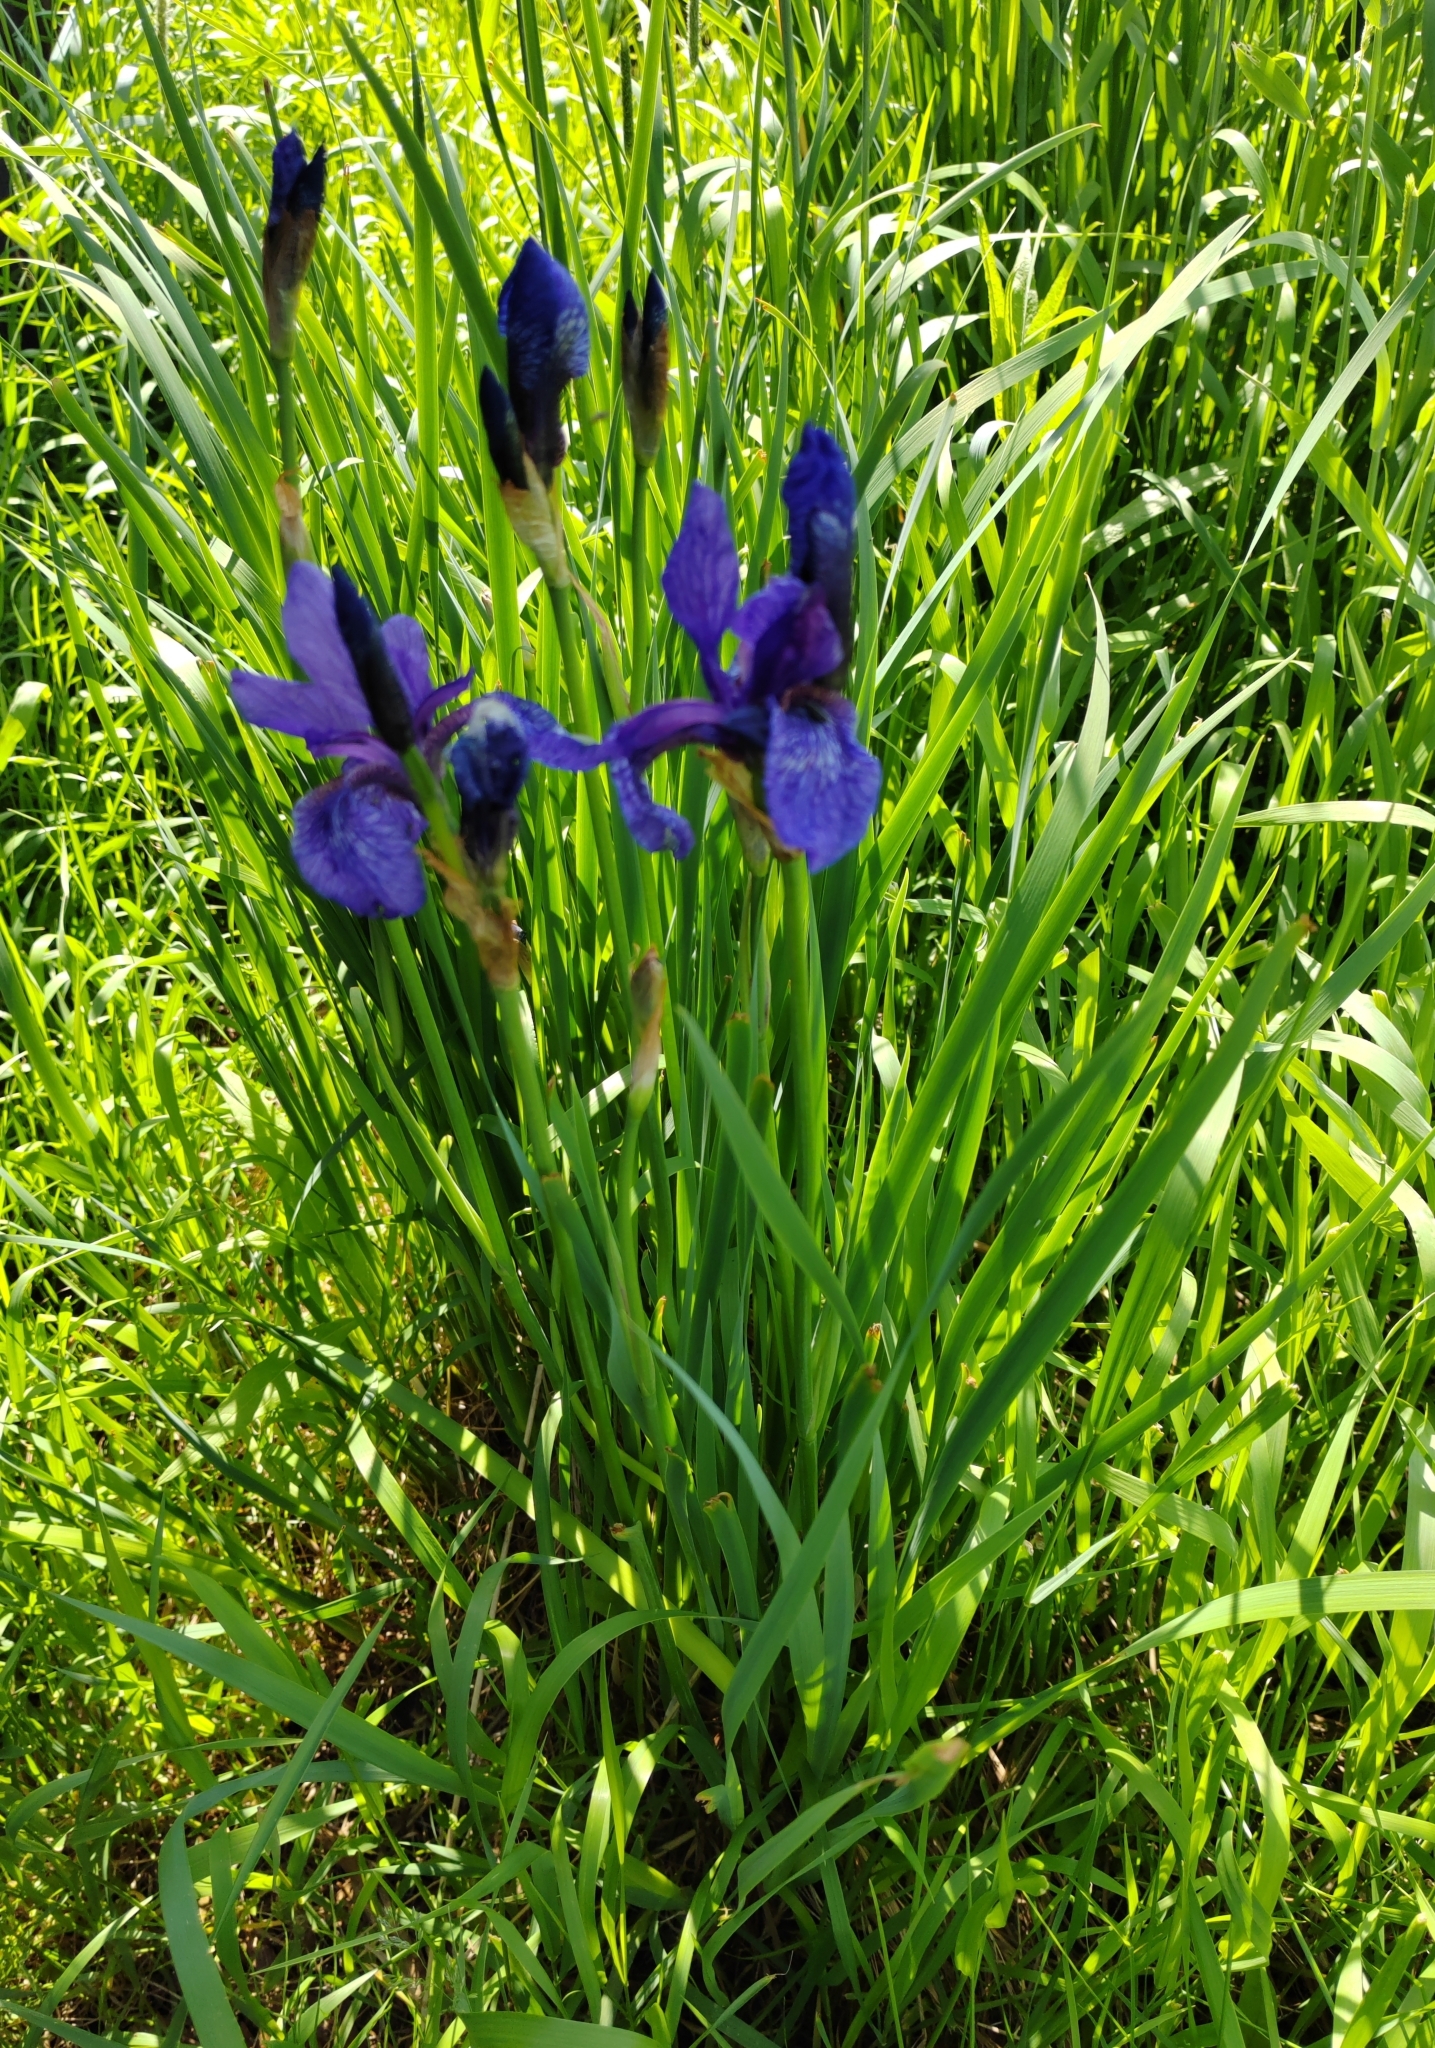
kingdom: Plantae
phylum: Tracheophyta
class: Liliopsida
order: Asparagales
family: Iridaceae
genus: Iris
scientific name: Iris sibirica
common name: Siberian iris
